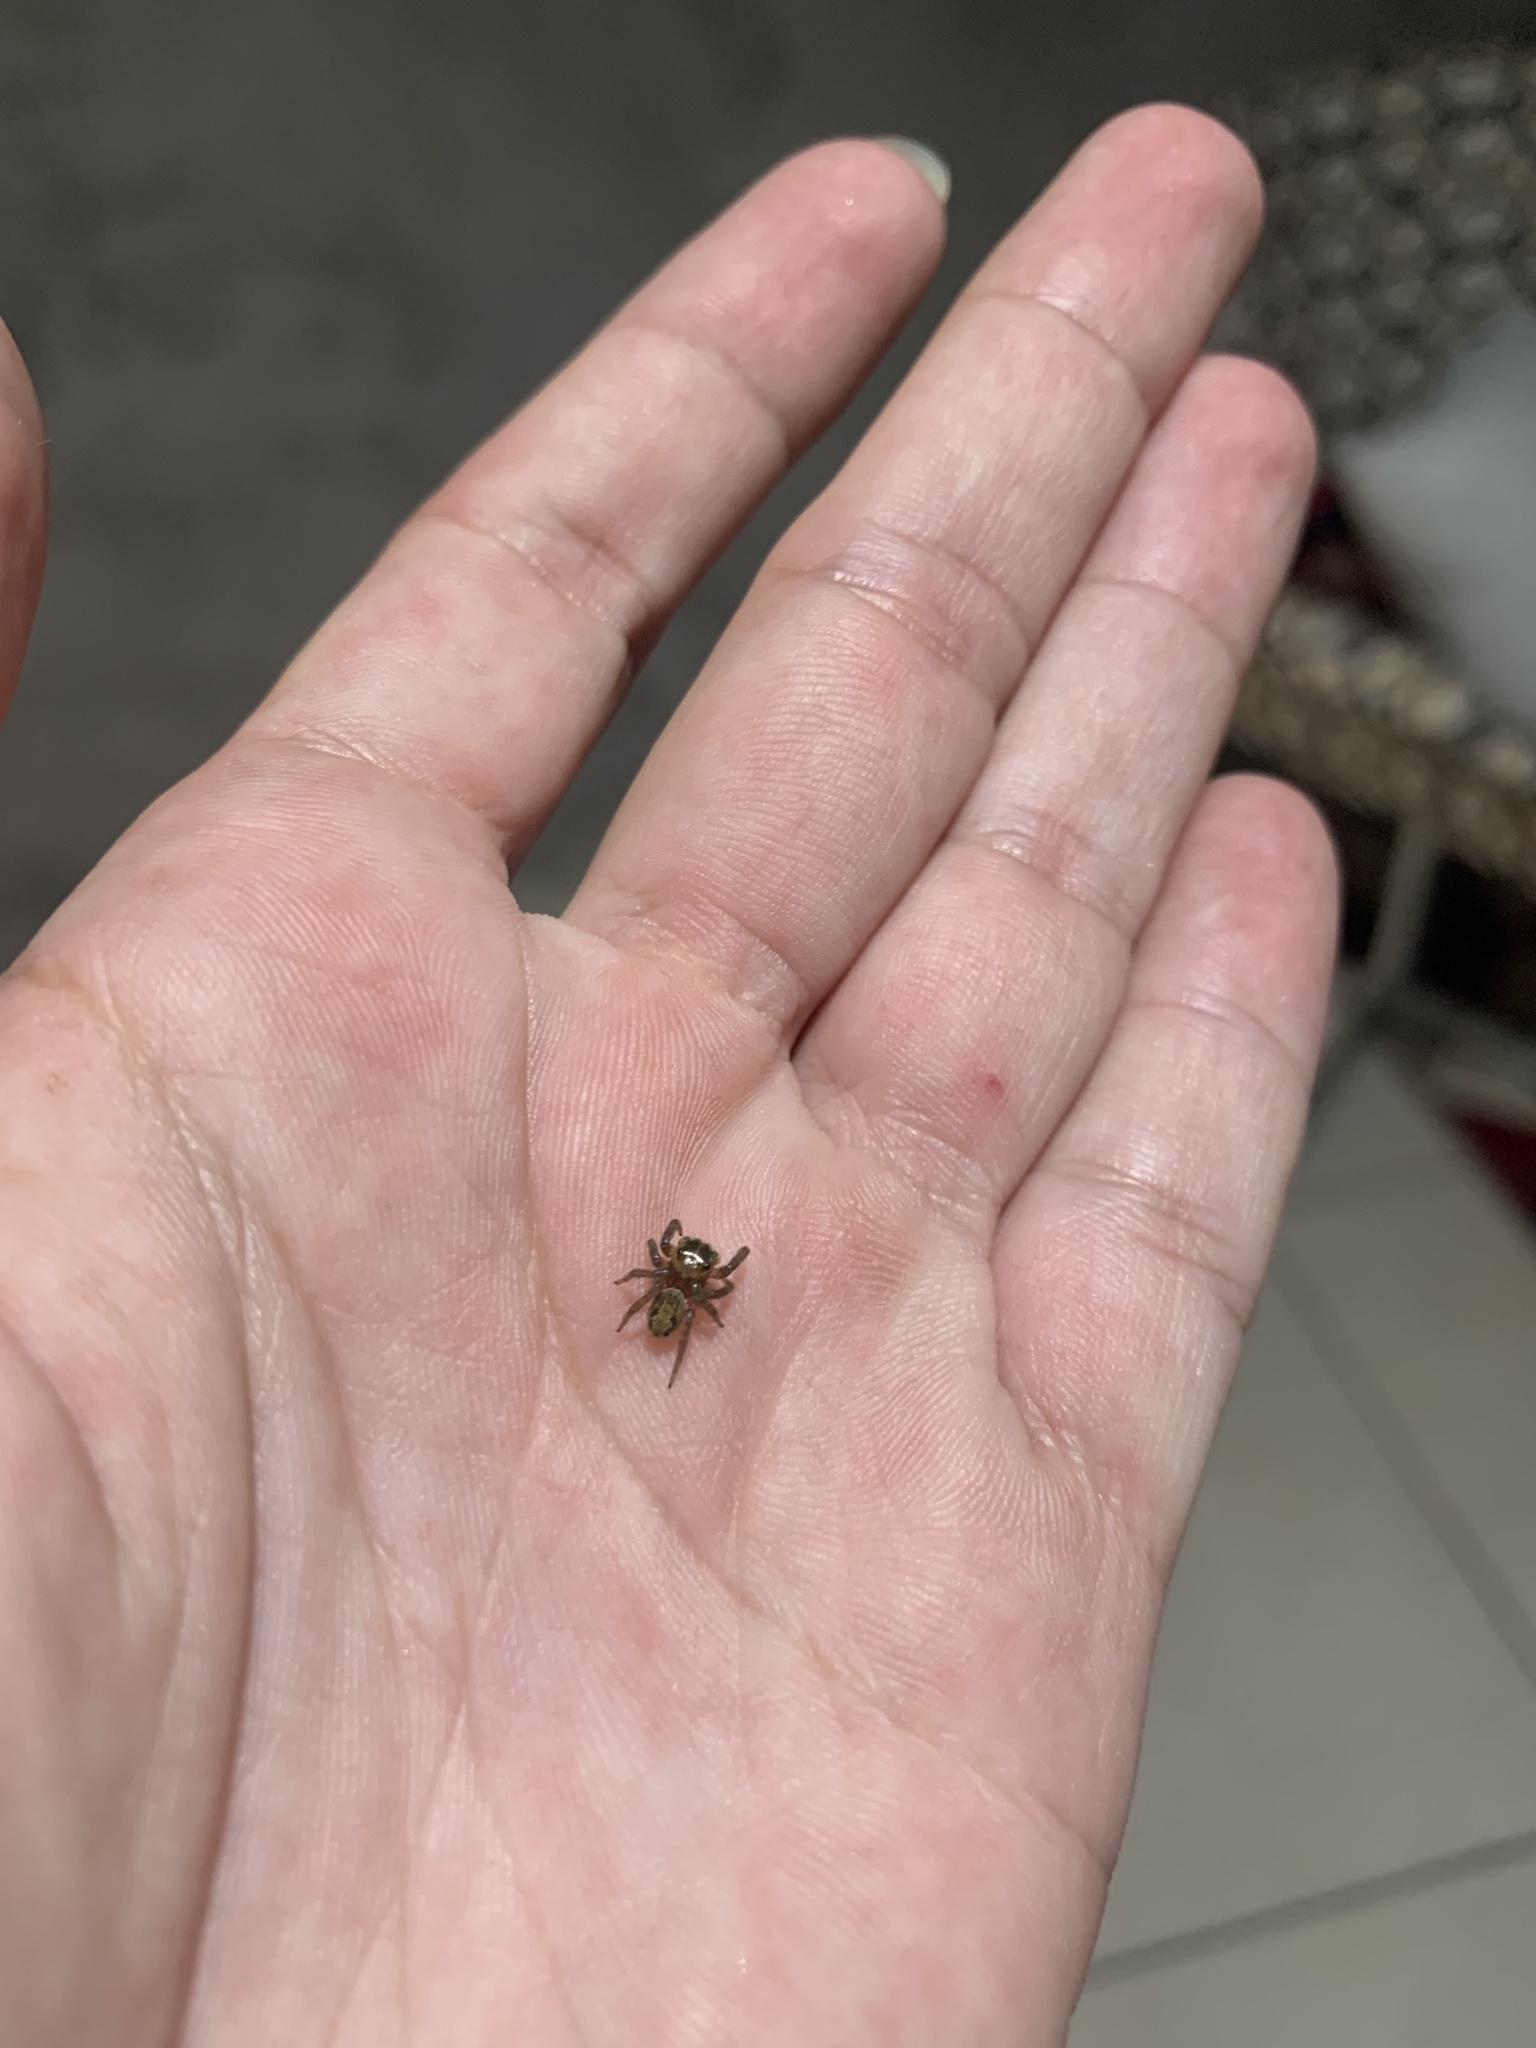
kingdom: Animalia
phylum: Arthropoda
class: Arachnida
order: Araneae
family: Salticidae
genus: Hasarius
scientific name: Hasarius adansoni
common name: Jumping spider
